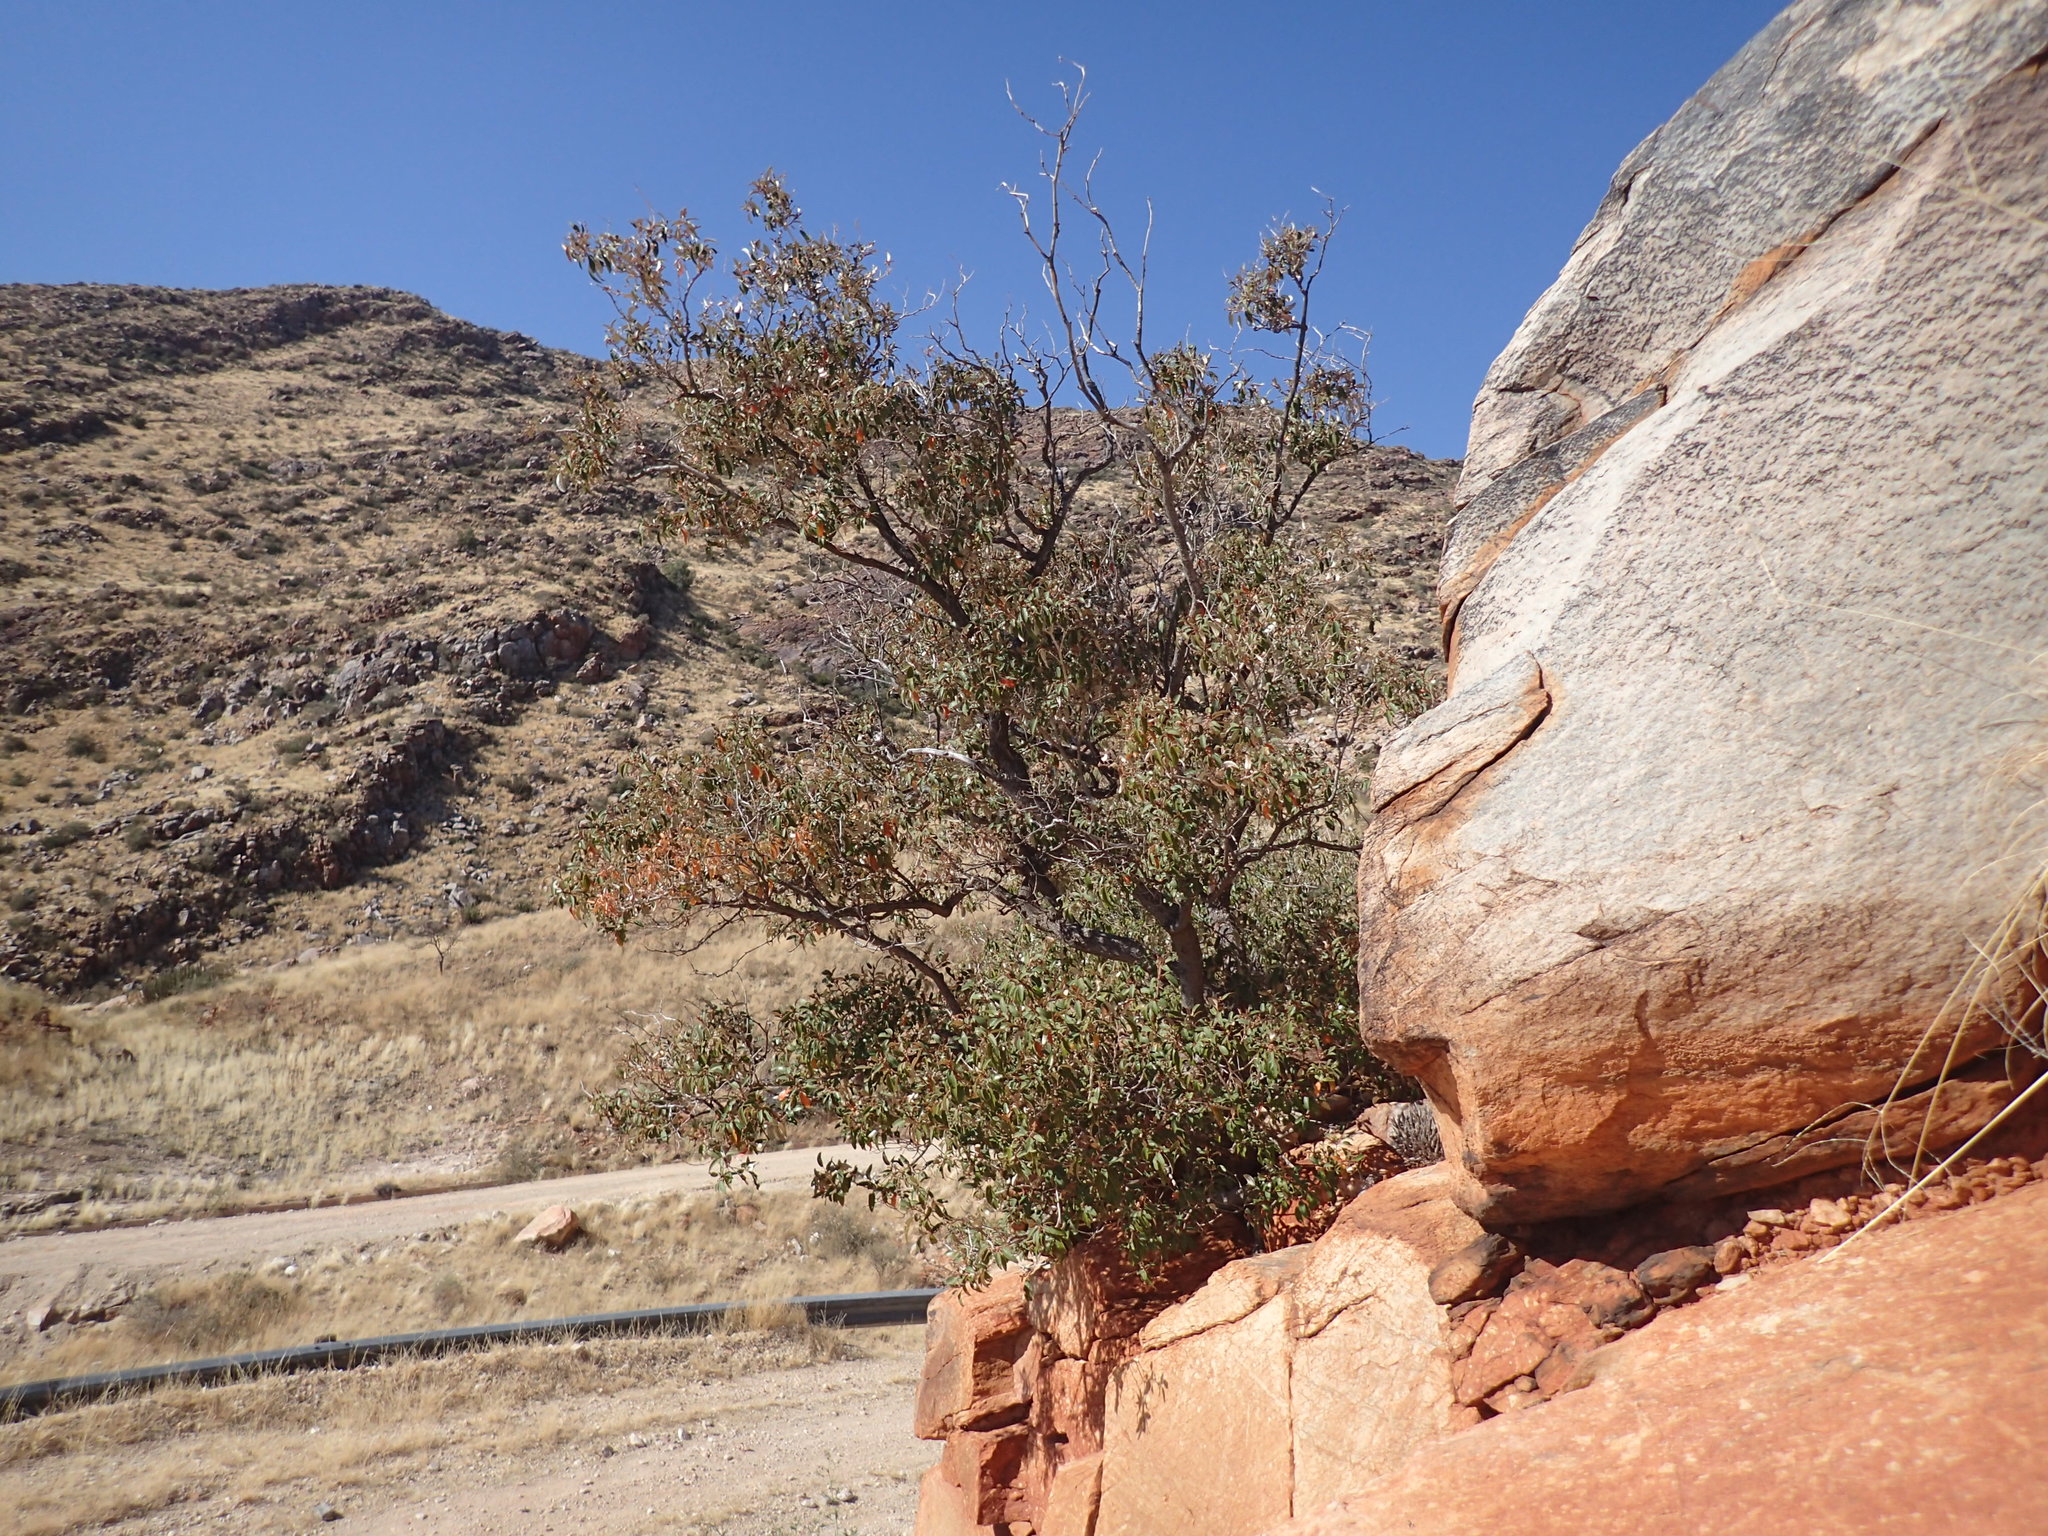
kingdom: Plantae
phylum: Tracheophyta
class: Magnoliopsida
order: Malpighiales
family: Euphorbiaceae
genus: Croton
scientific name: Croton gratissimus
